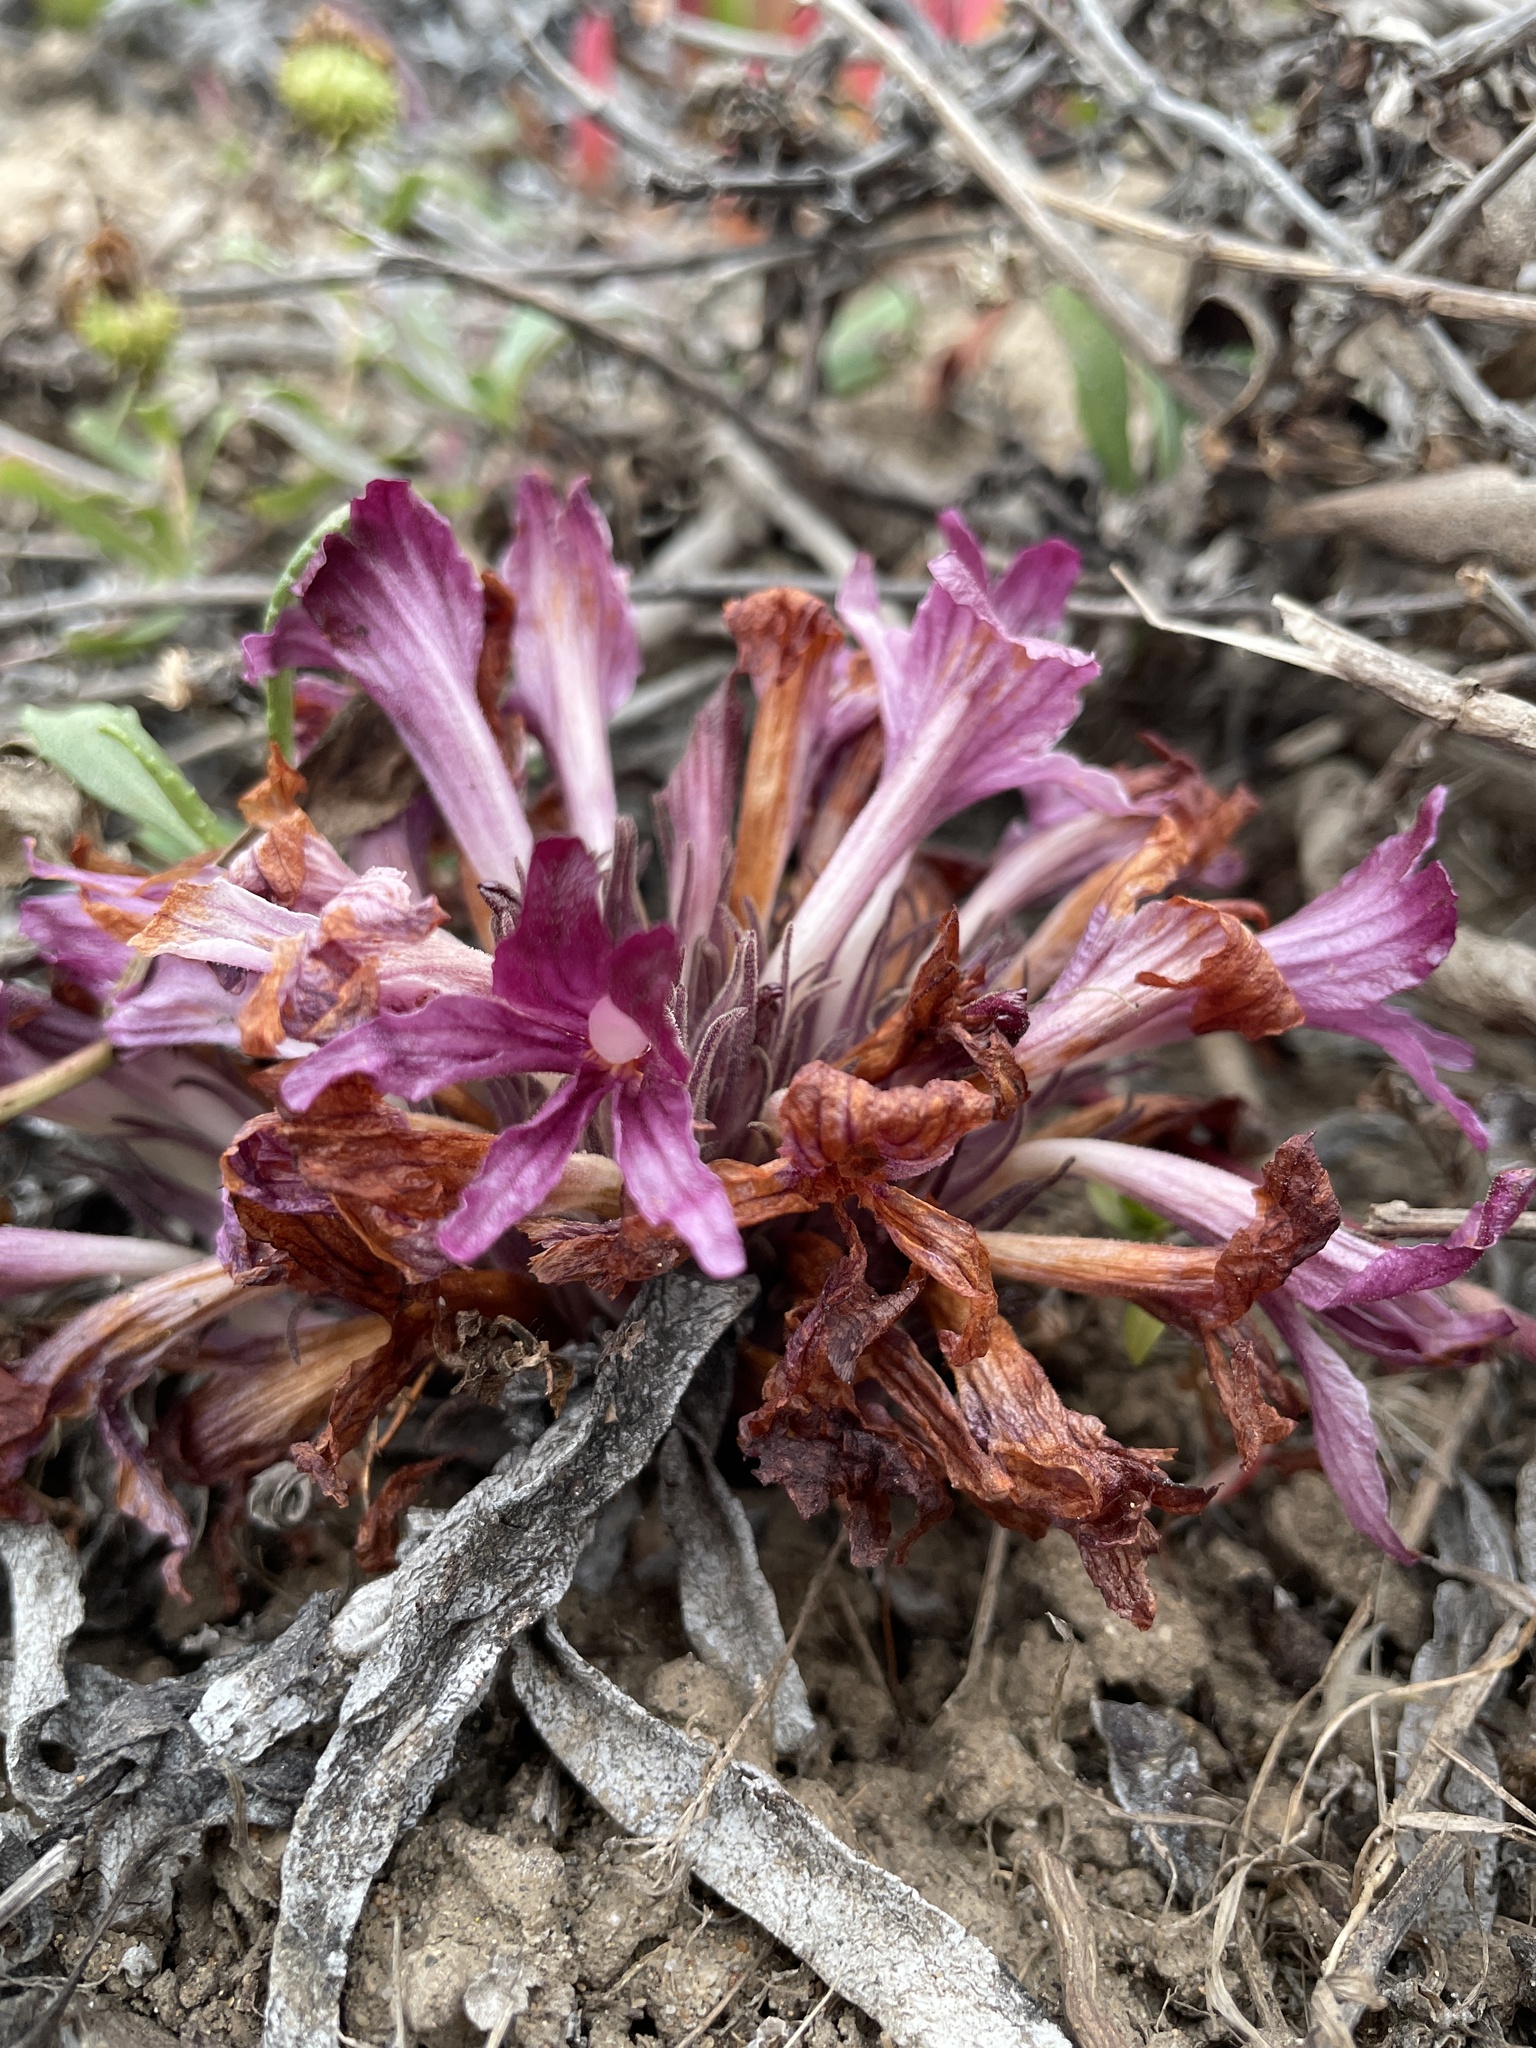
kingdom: Plantae
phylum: Tracheophyta
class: Magnoliopsida
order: Lamiales
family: Orobanchaceae
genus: Aphyllon
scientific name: Aphyllon californicum
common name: California broomrape
